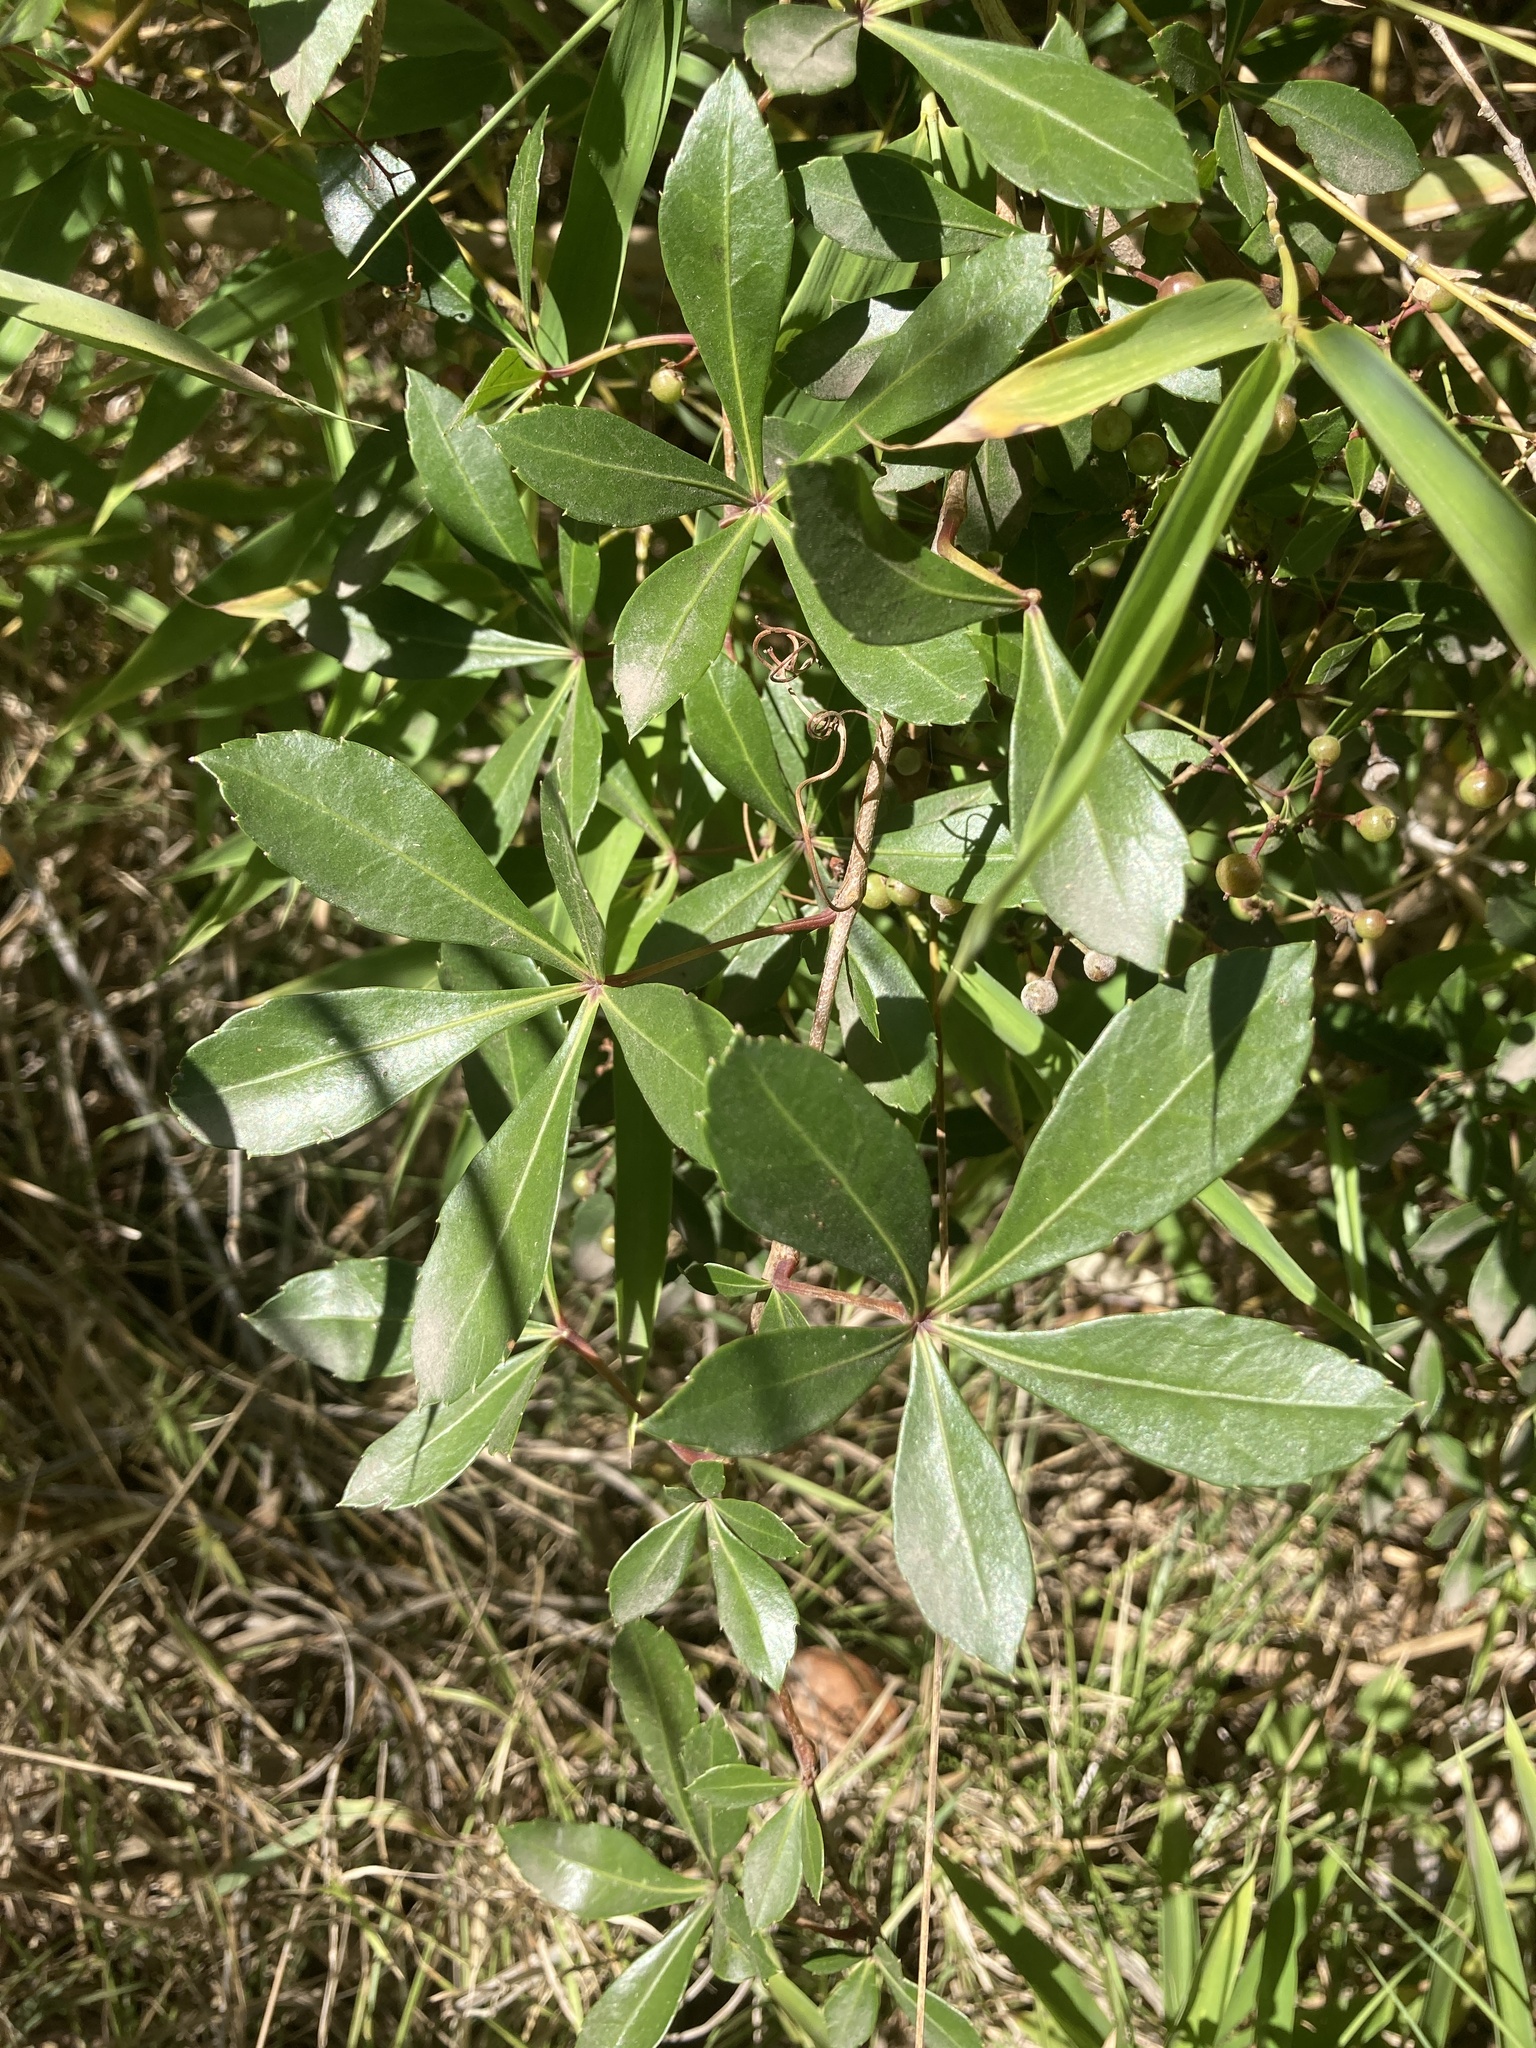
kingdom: Plantae
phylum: Tracheophyta
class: Magnoliopsida
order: Vitales
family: Vitaceae
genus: Clematicissus
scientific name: Clematicissus striata
